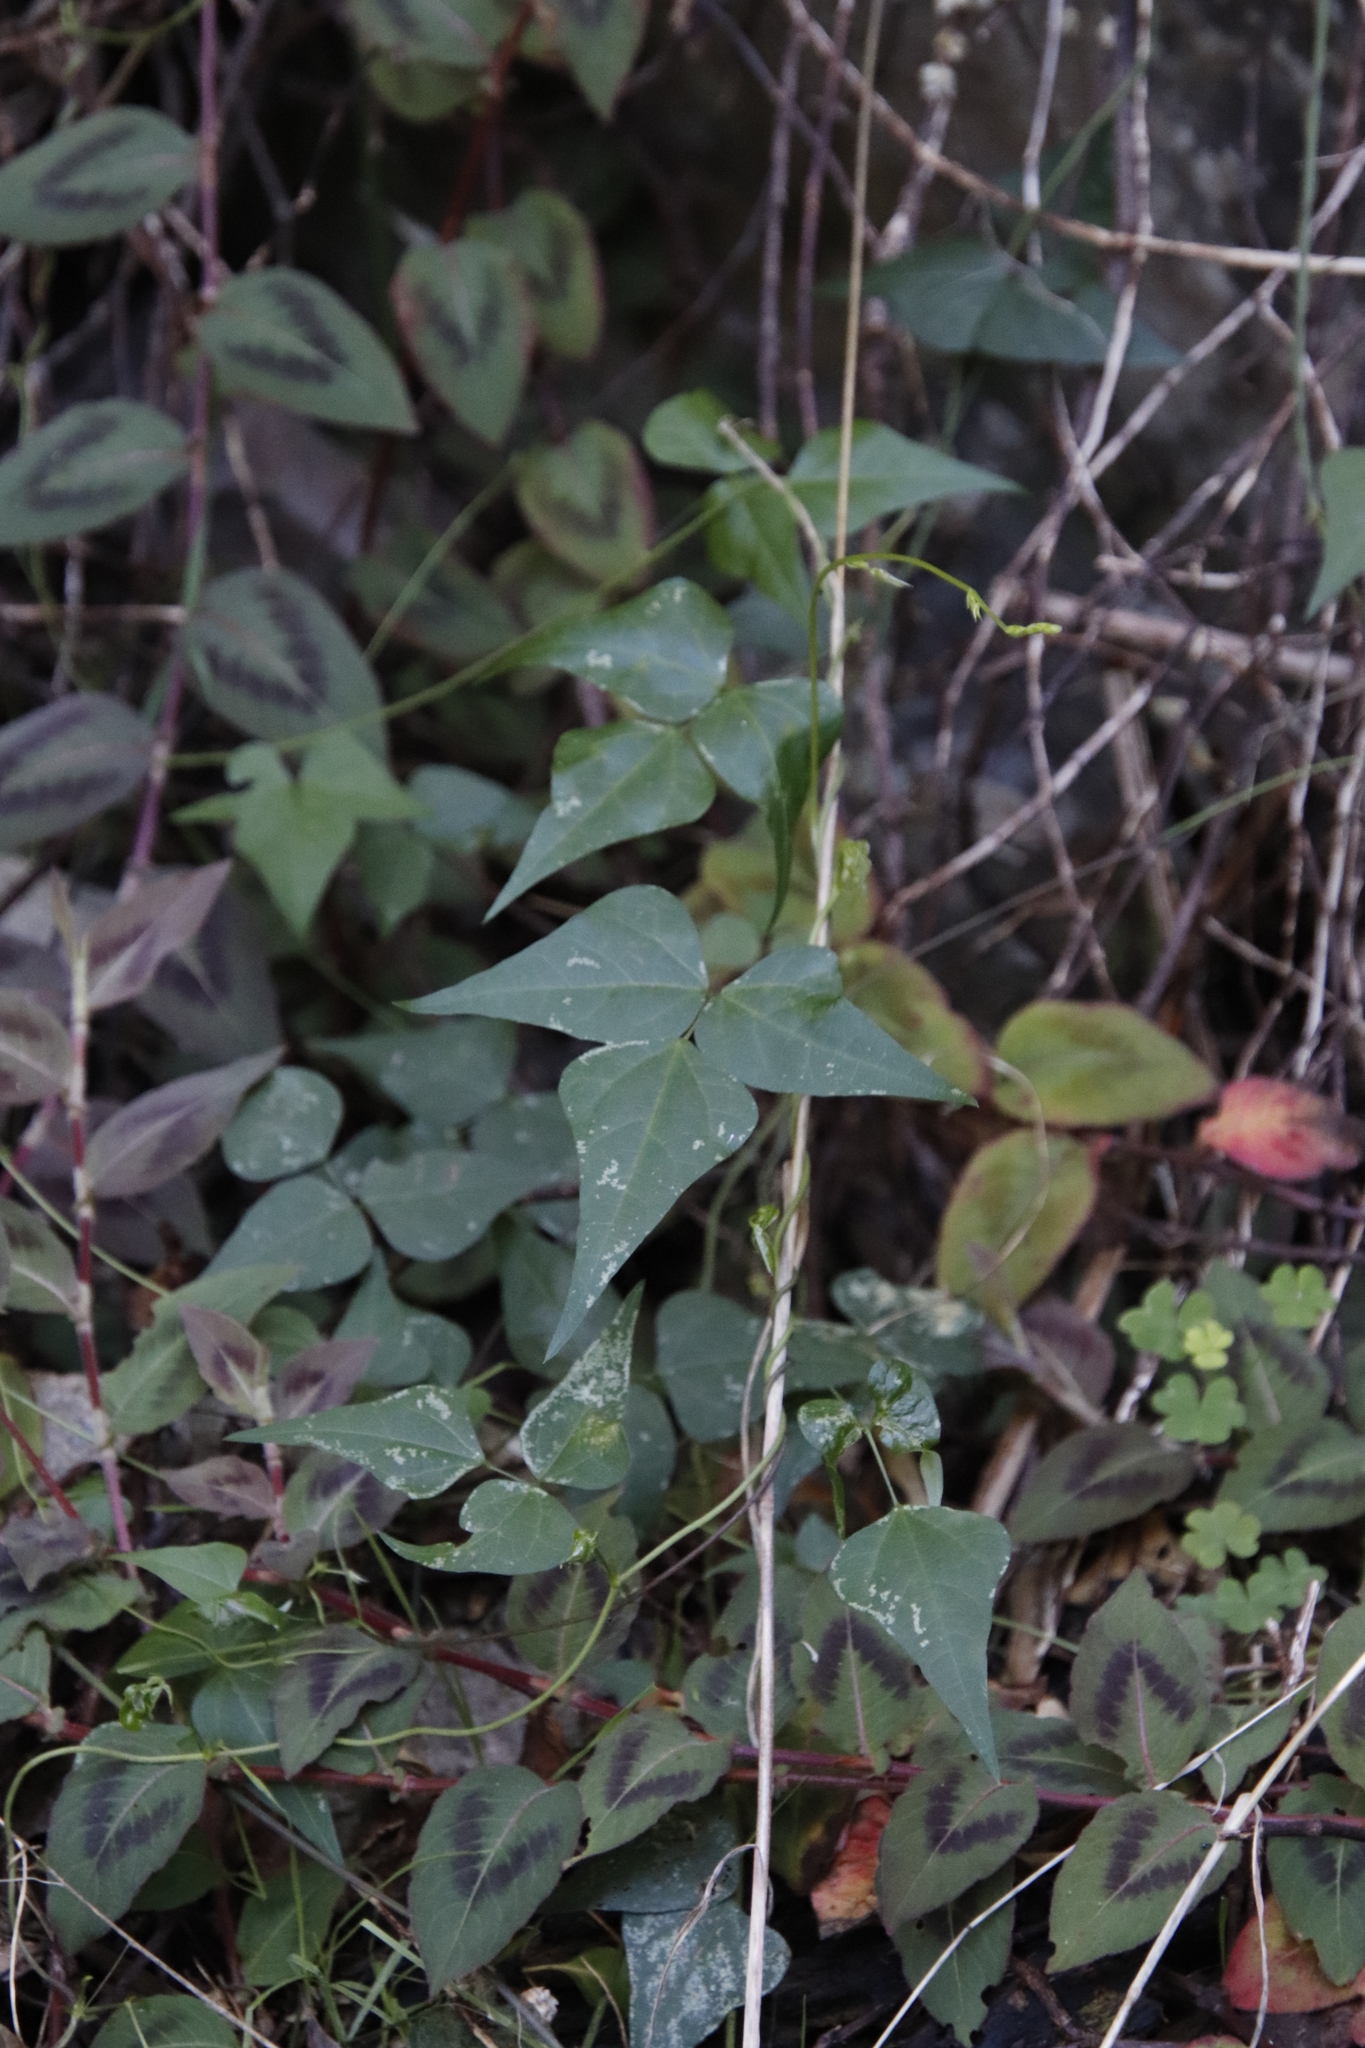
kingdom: Plantae
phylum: Tracheophyta
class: Magnoliopsida
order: Fabales
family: Fabaceae
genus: Dipogon
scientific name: Dipogon lignosus
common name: Okie bean
